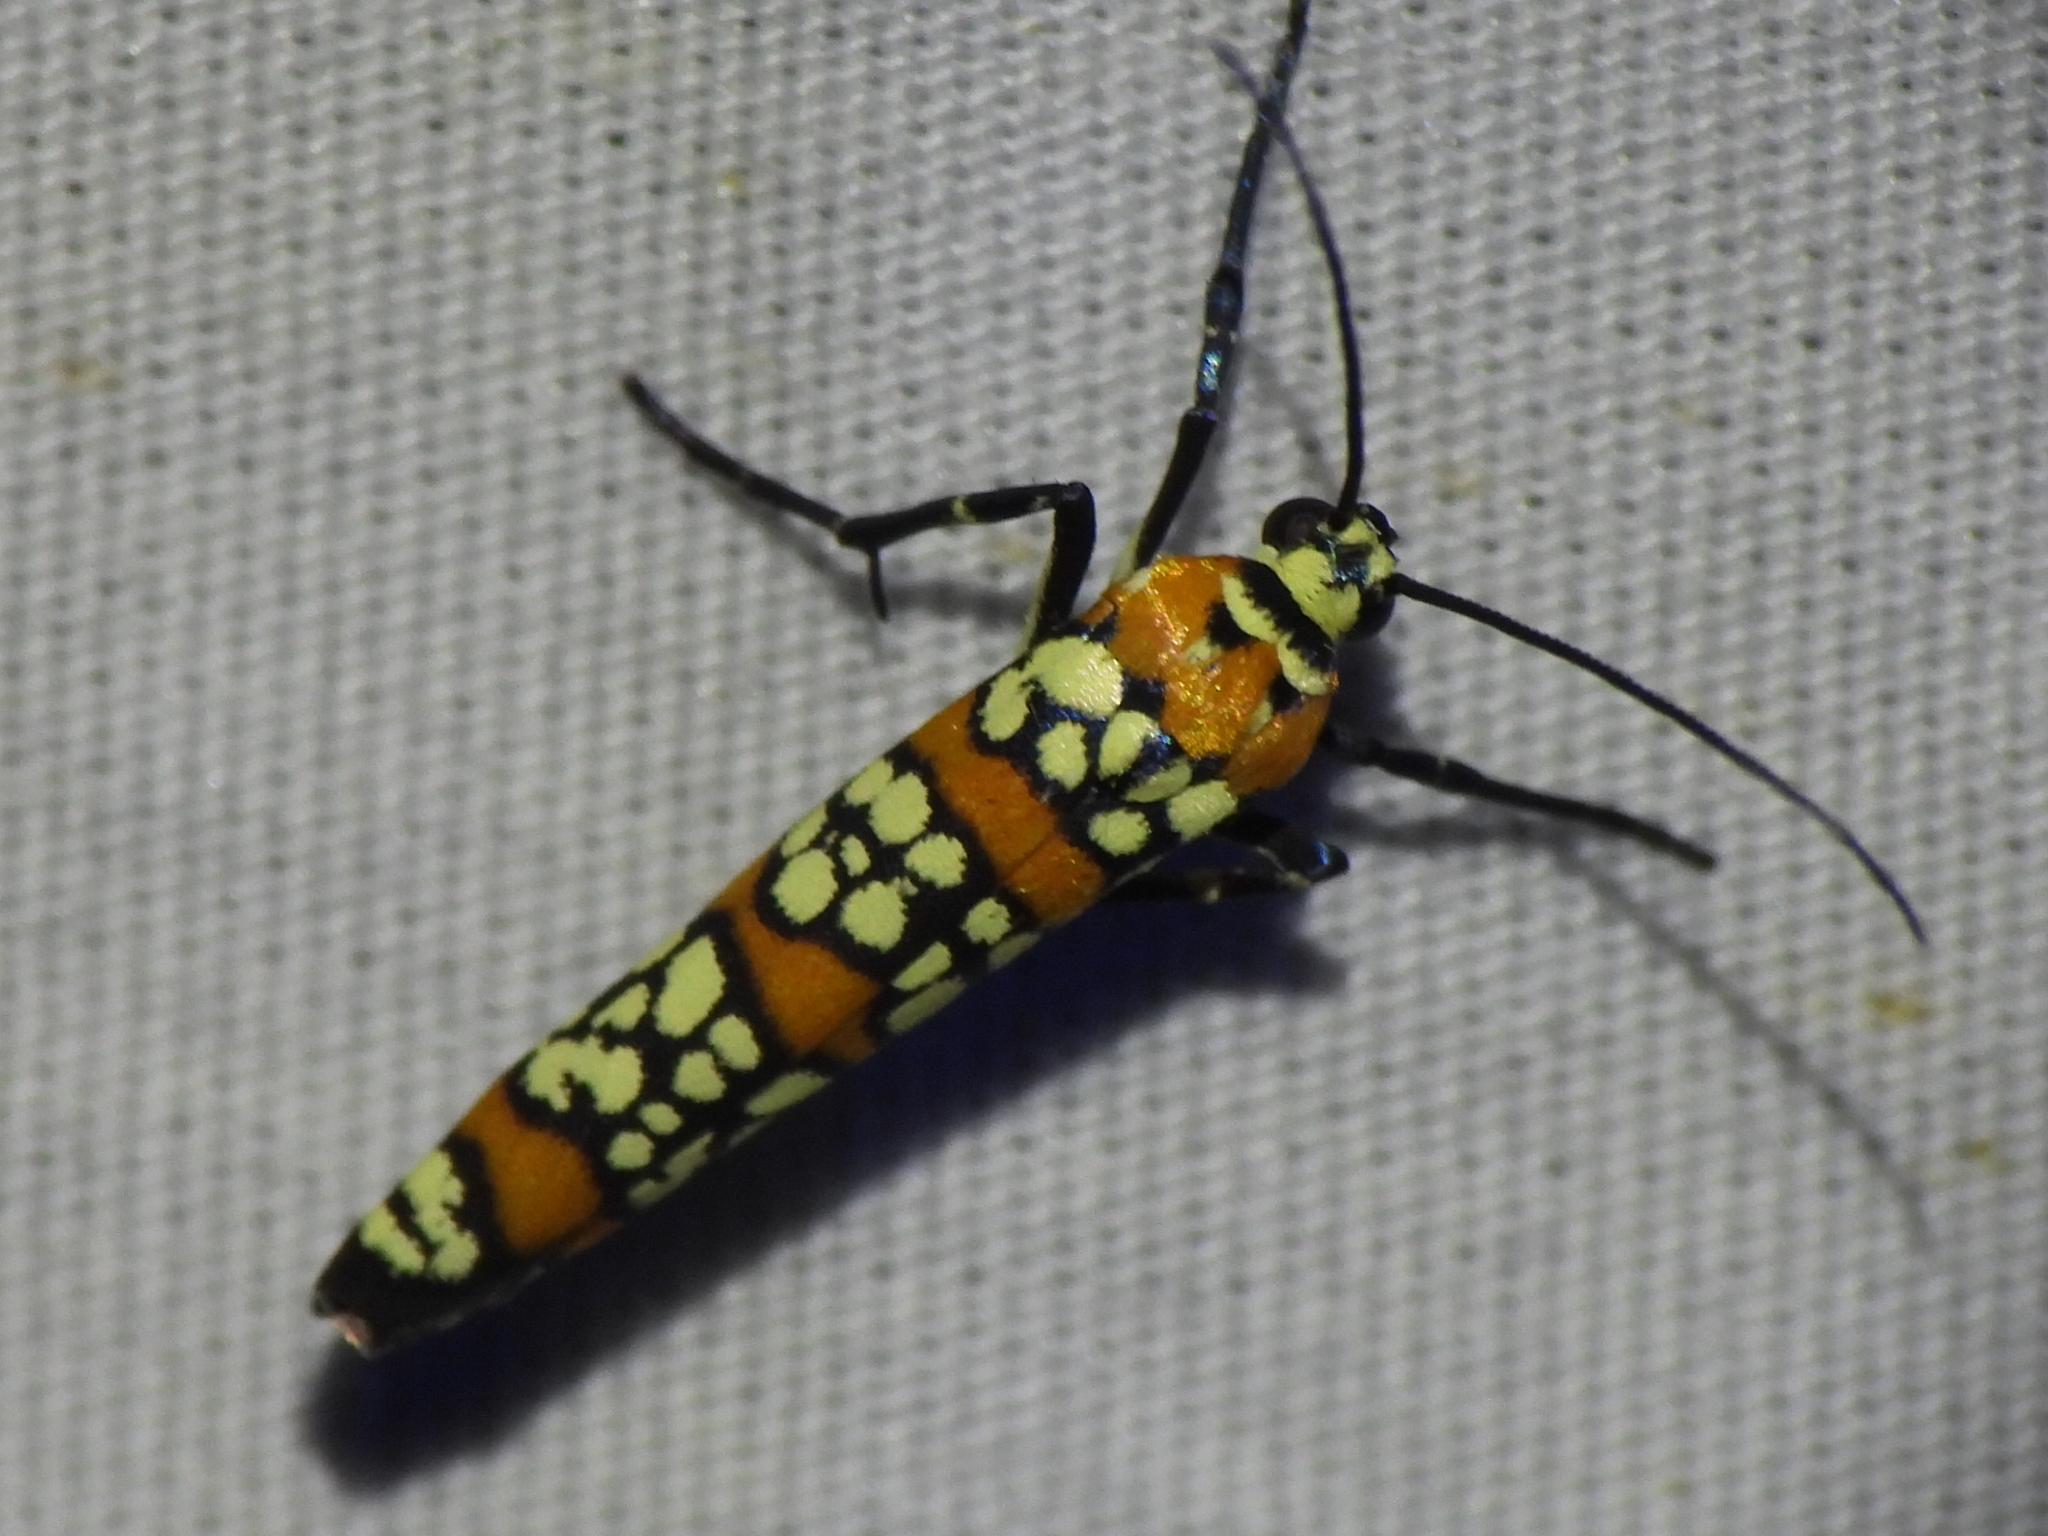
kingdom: Animalia
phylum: Arthropoda
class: Insecta
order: Lepidoptera
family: Attevidae
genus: Atteva
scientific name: Atteva punctella
